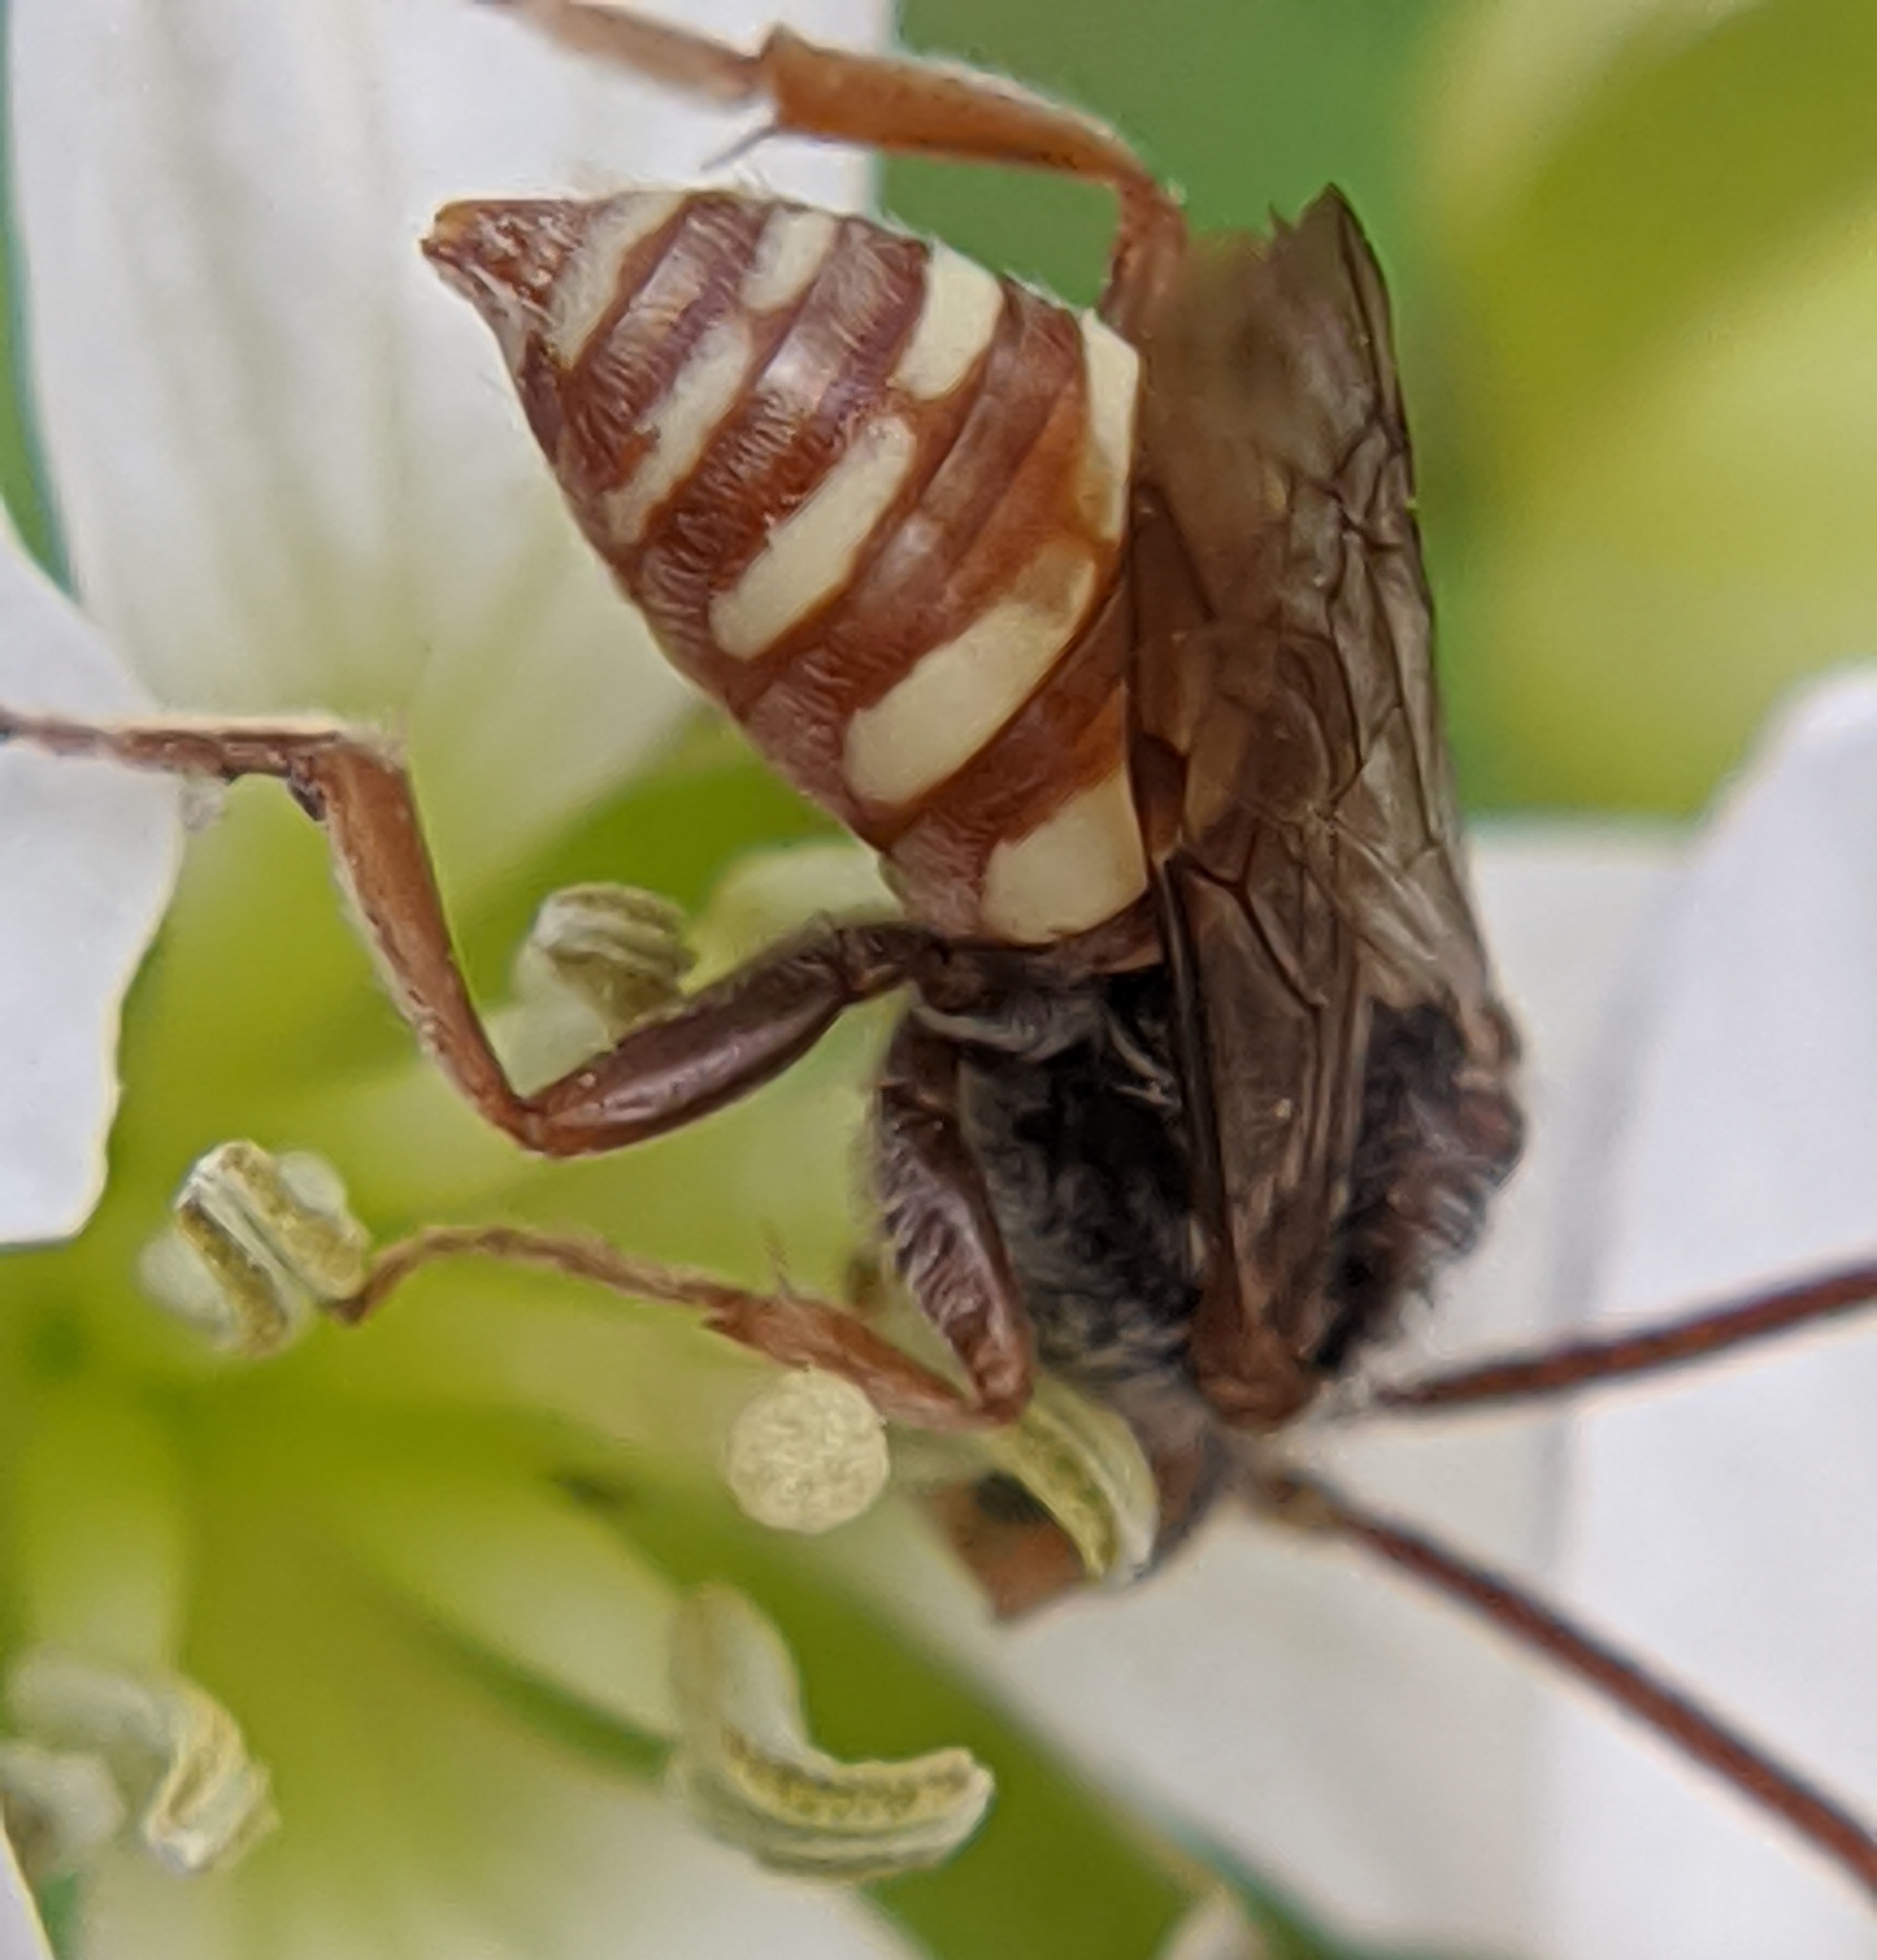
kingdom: Animalia
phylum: Arthropoda
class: Insecta
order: Hymenoptera
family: Apidae
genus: Nomada
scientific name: Nomada
